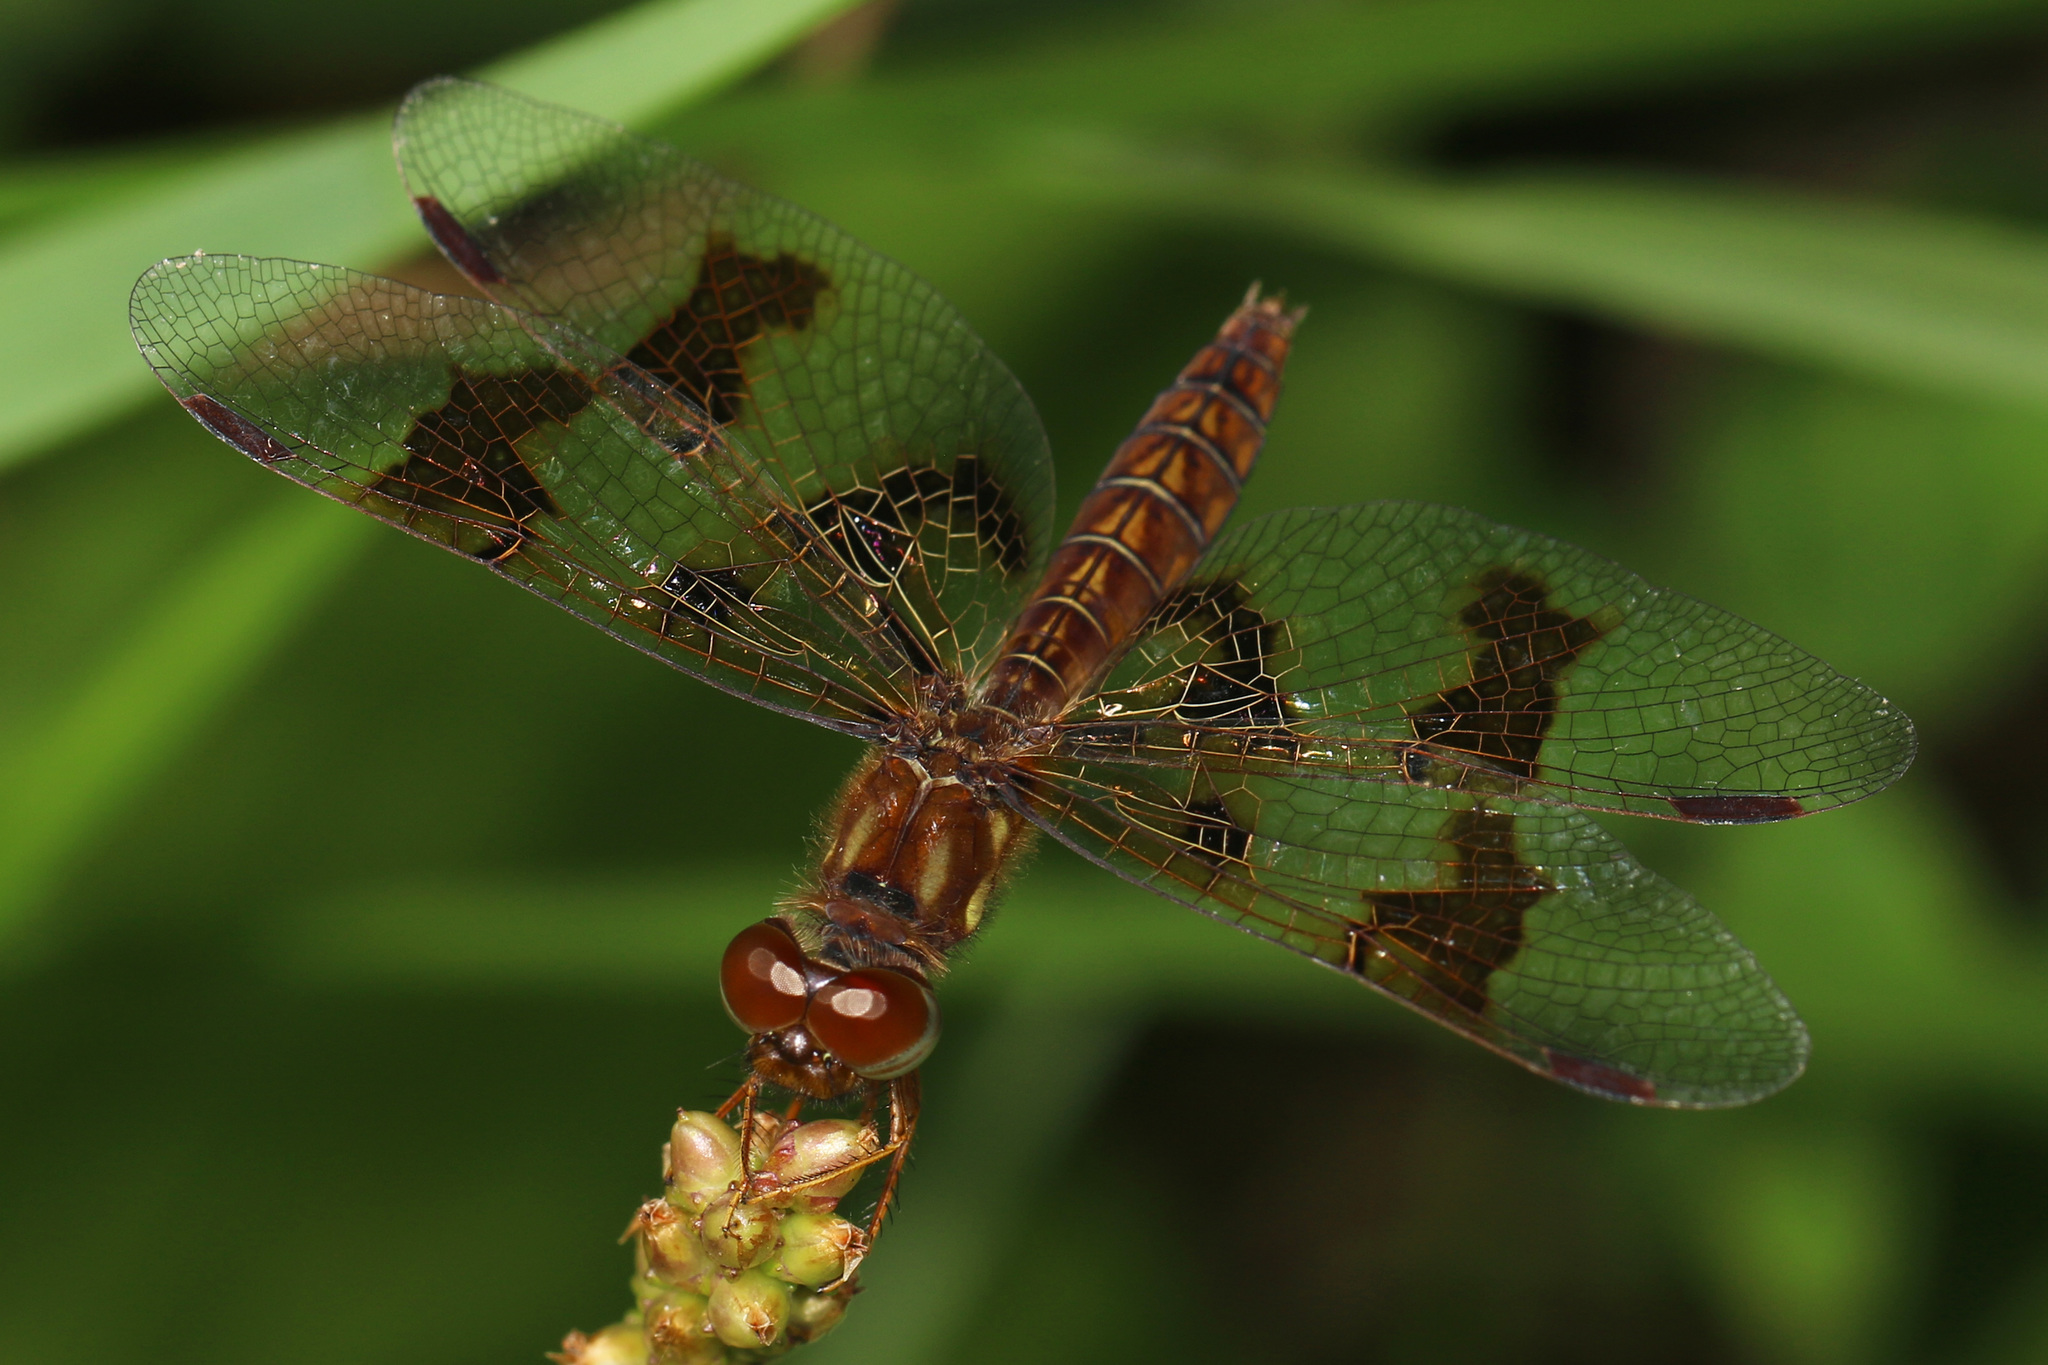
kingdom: Animalia
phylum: Arthropoda
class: Insecta
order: Odonata
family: Libellulidae
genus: Perithemis
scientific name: Perithemis tenera
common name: Eastern amberwing
